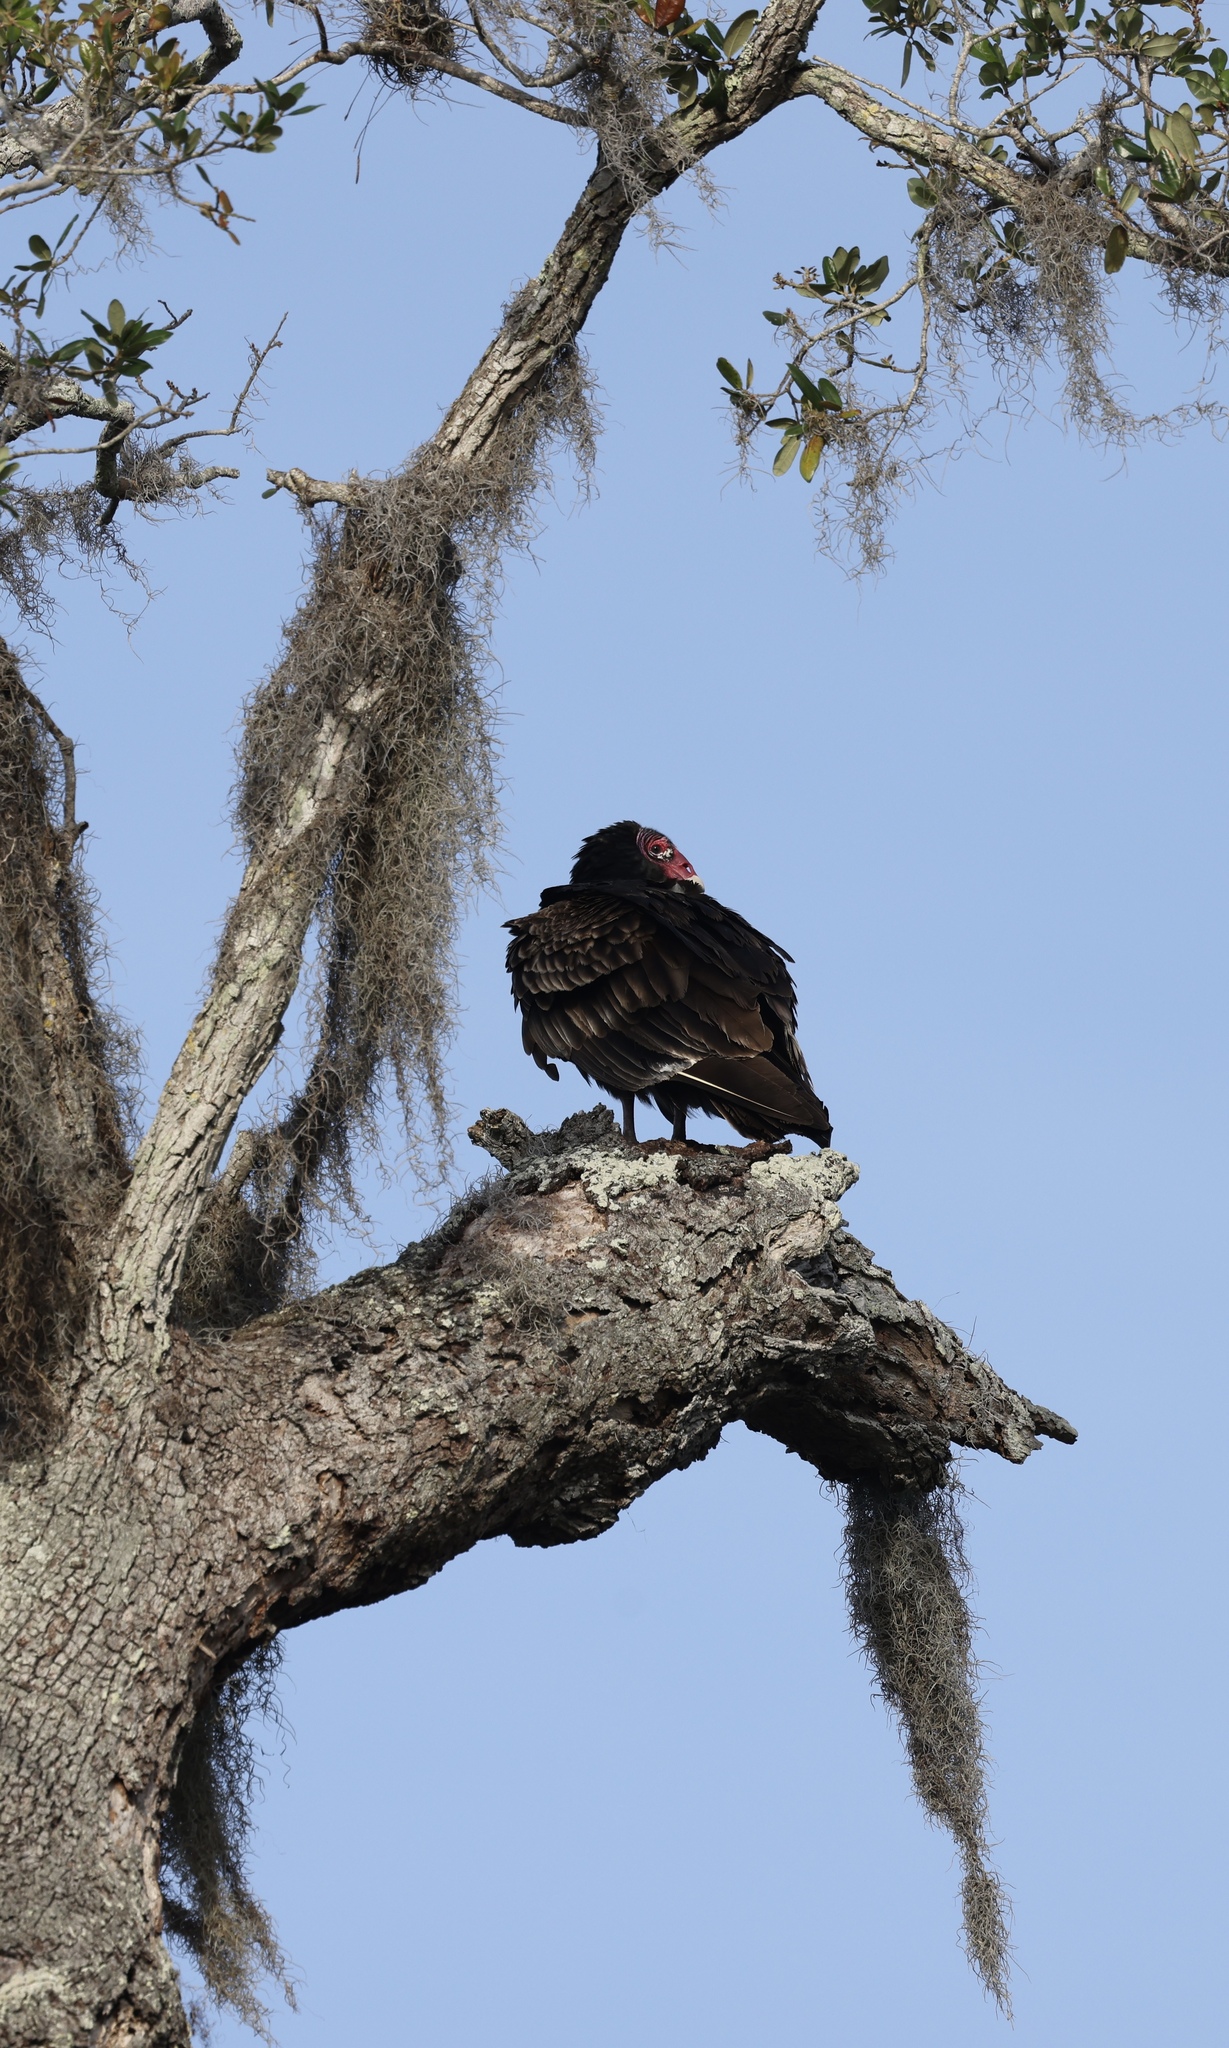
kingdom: Animalia
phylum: Chordata
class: Aves
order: Accipitriformes
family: Cathartidae
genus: Cathartes
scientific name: Cathartes aura
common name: Turkey vulture
